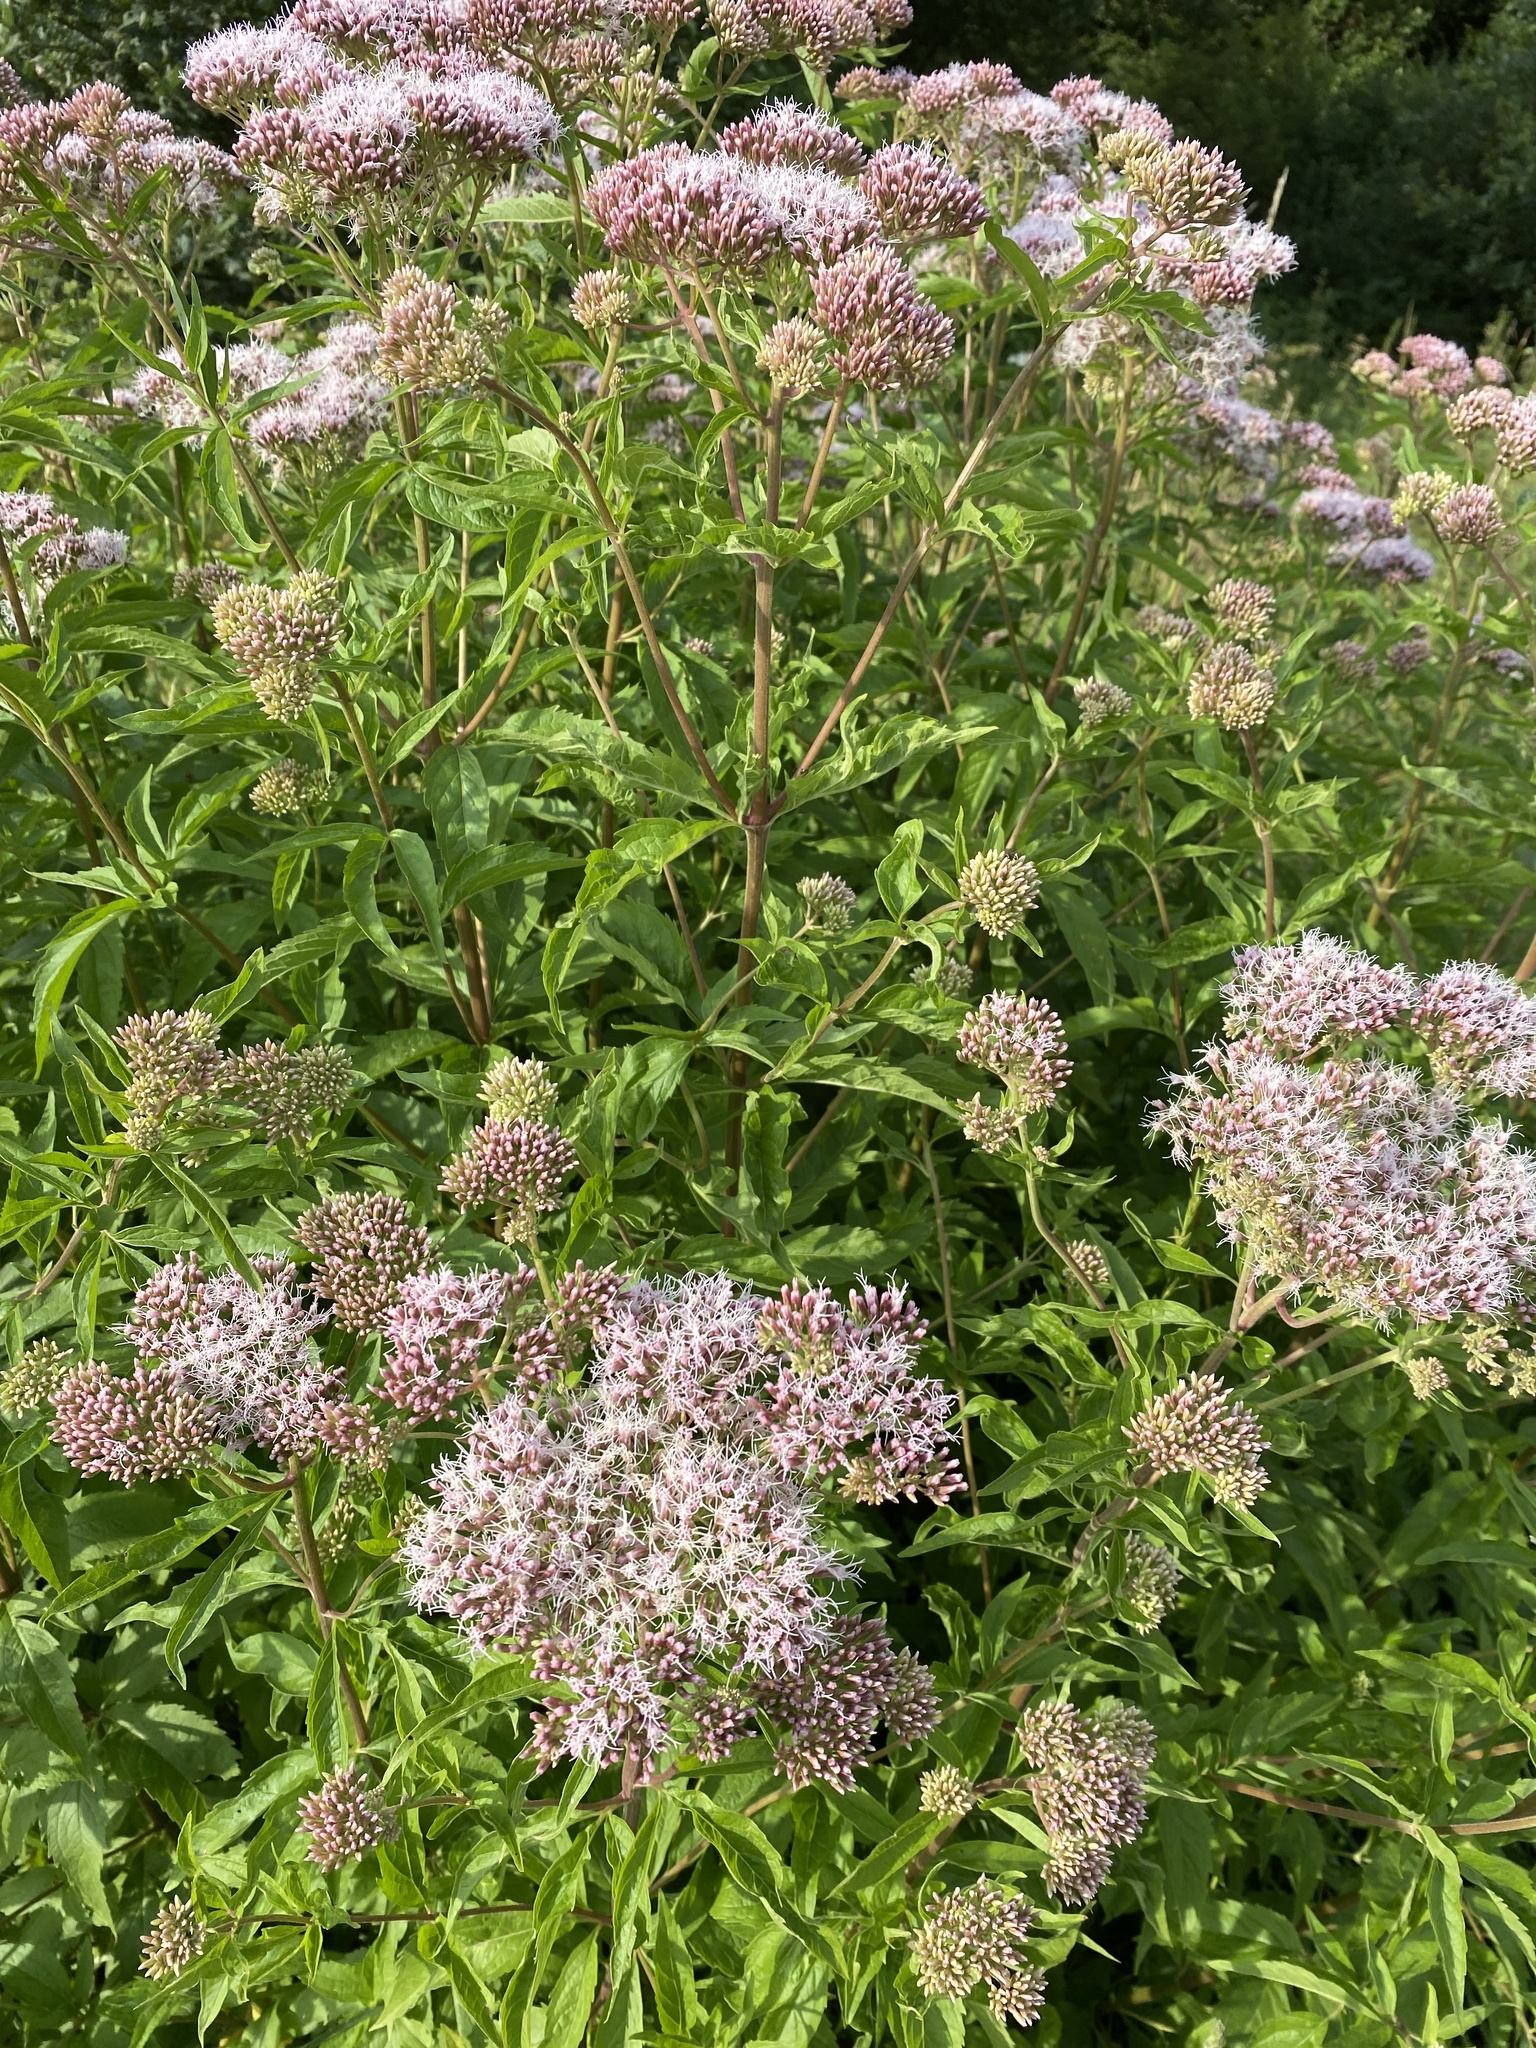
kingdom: Plantae
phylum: Tracheophyta
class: Magnoliopsida
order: Asterales
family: Asteraceae
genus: Eupatorium
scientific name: Eupatorium cannabinum
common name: Hemp-agrimony
